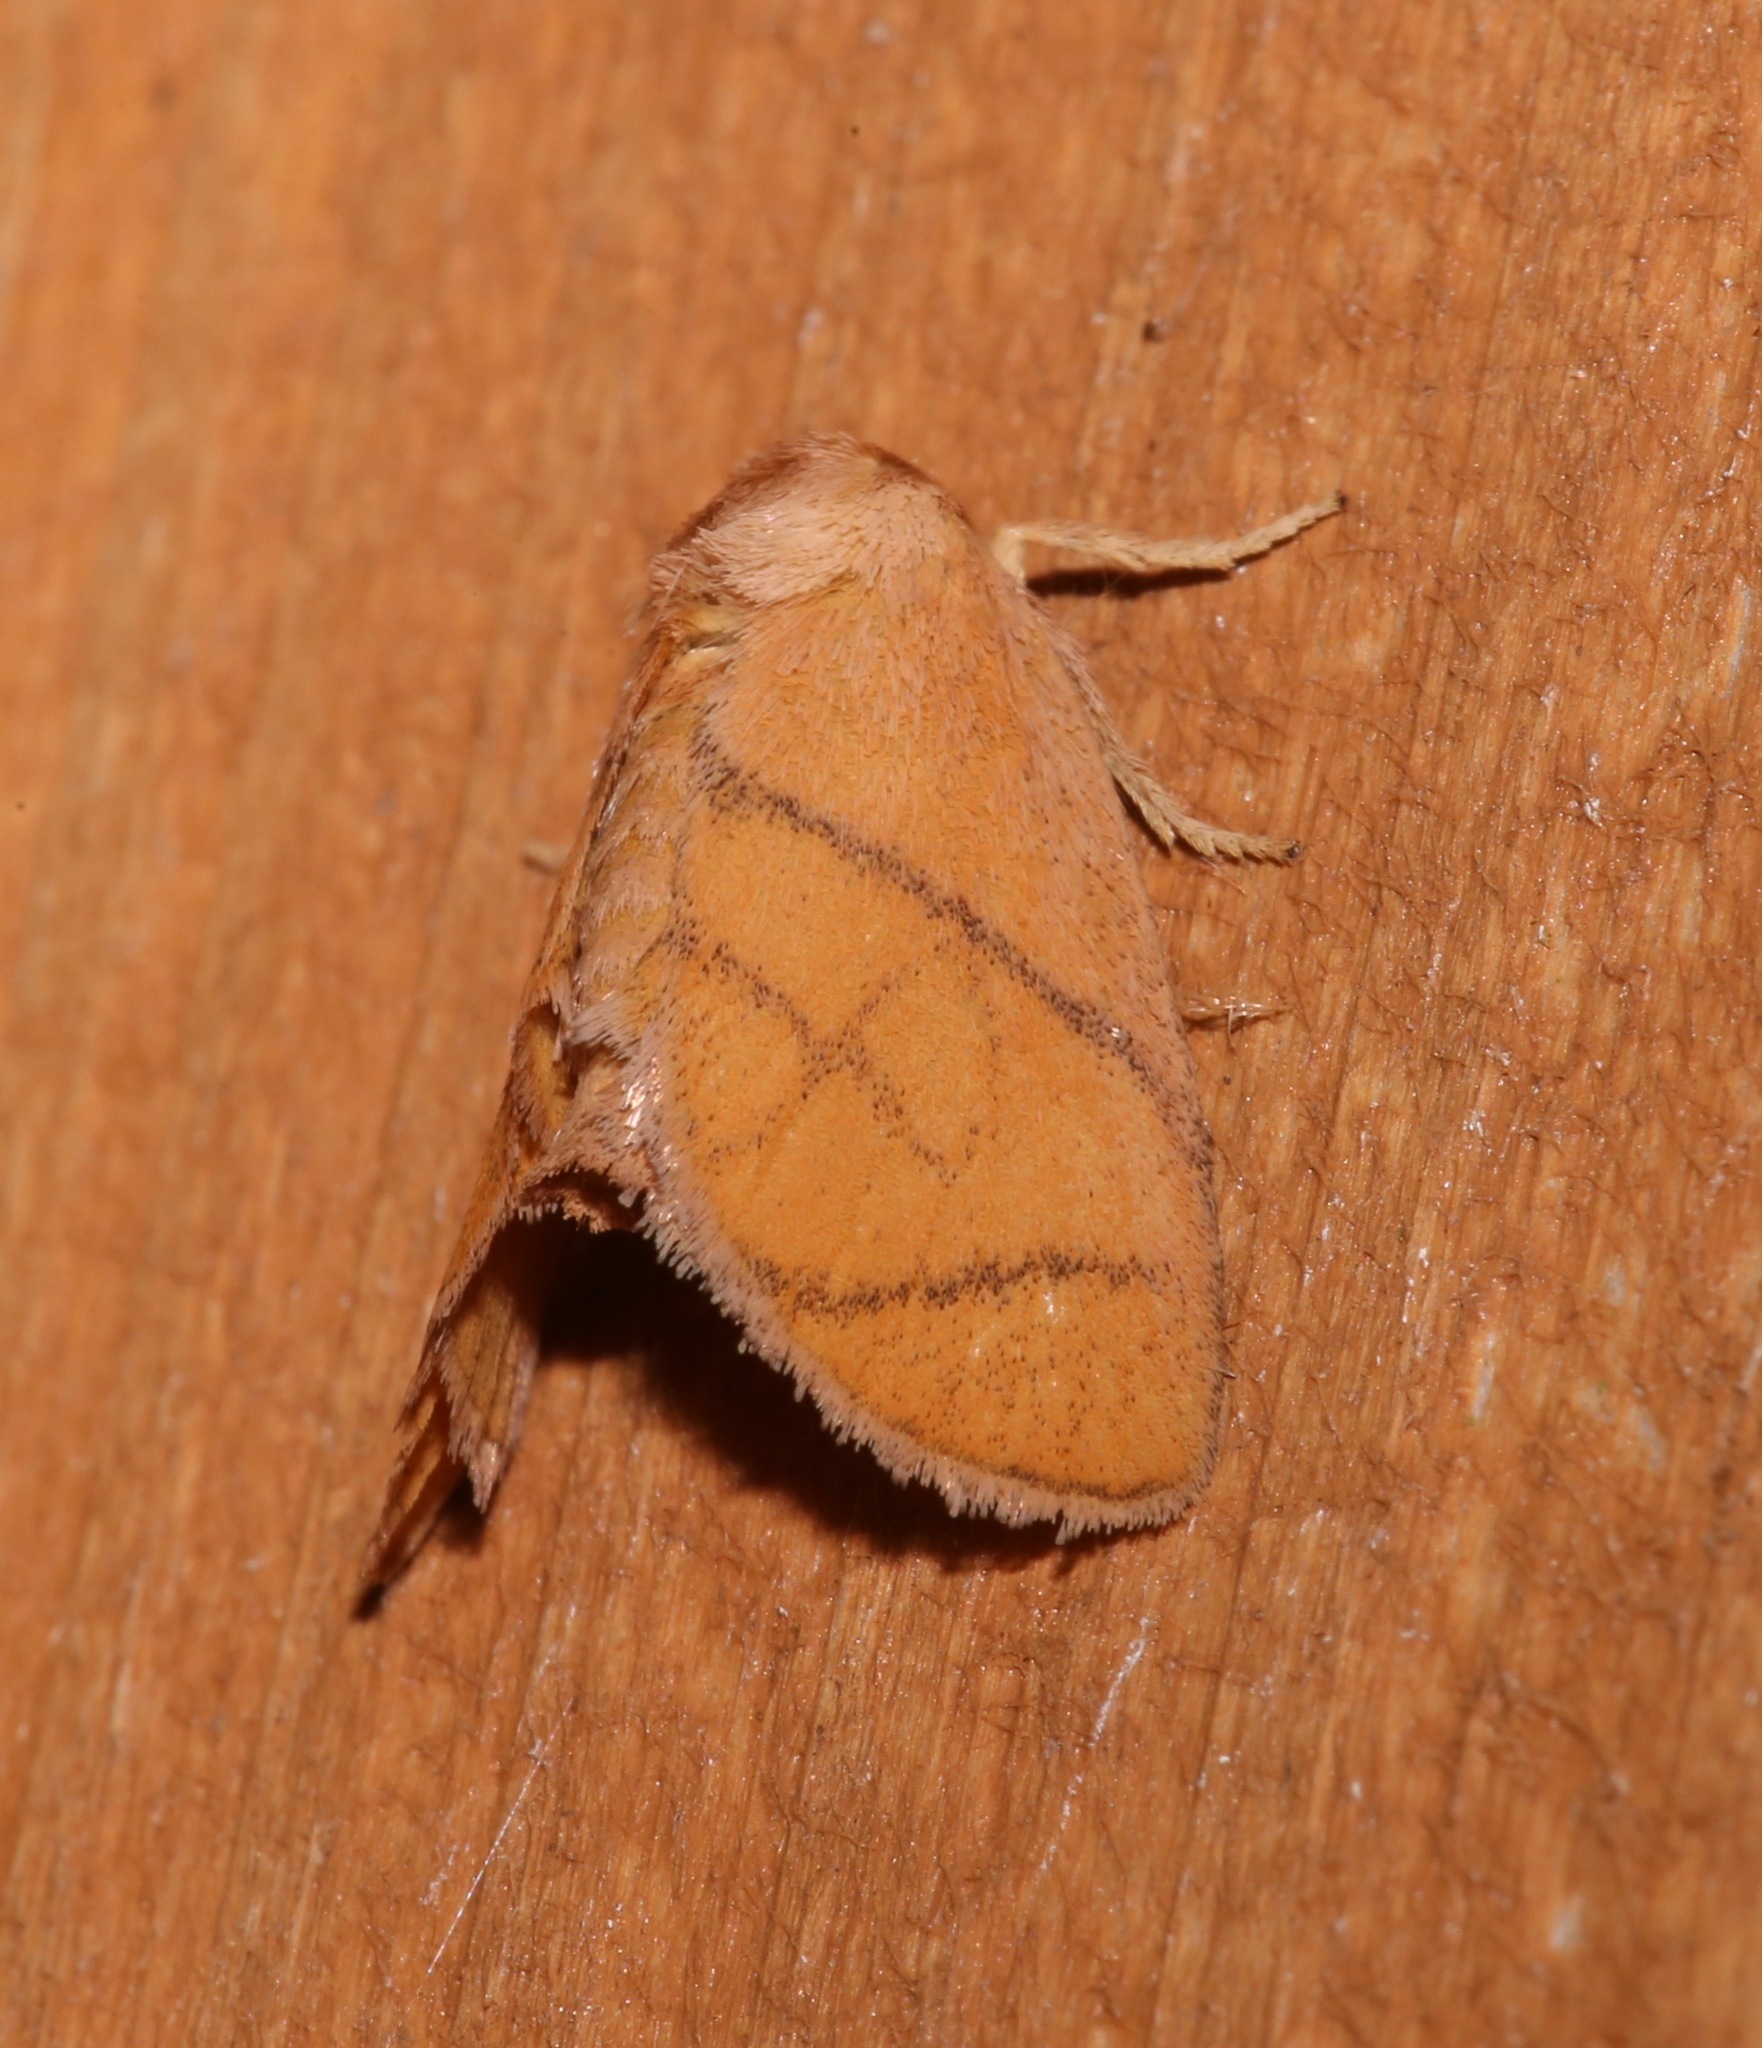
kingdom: Animalia
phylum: Arthropoda
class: Insecta
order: Lepidoptera
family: Limacodidae
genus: Apoda
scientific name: Apoda y-inversa
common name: Yellow-collared slug moth
